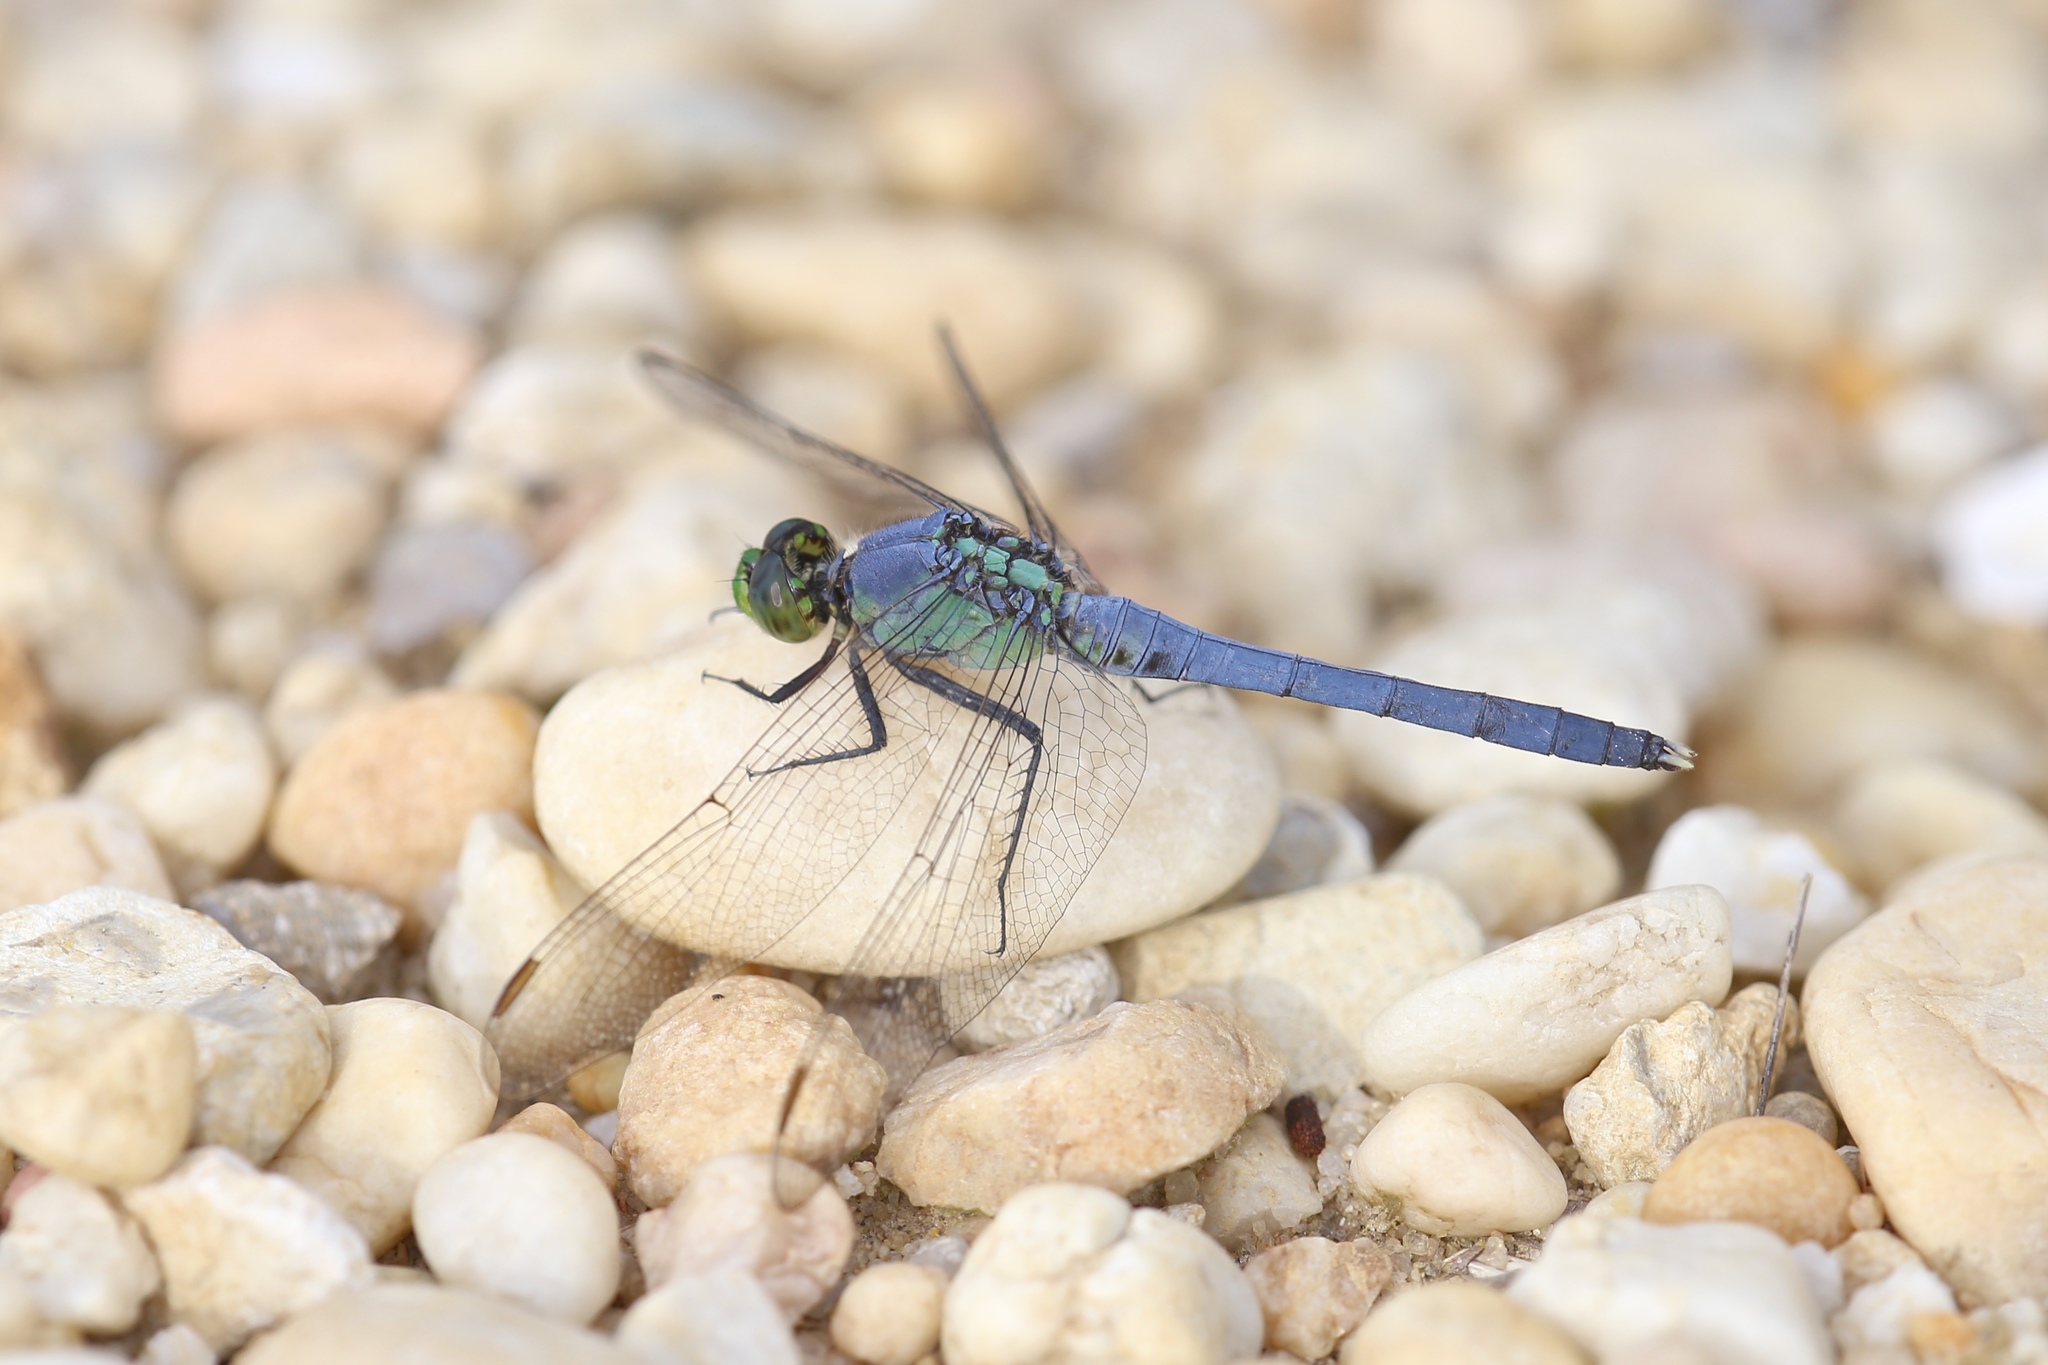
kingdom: Animalia
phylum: Arthropoda
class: Insecta
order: Odonata
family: Libellulidae
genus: Erythemis
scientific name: Erythemis simplicicollis
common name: Eastern pondhawk
